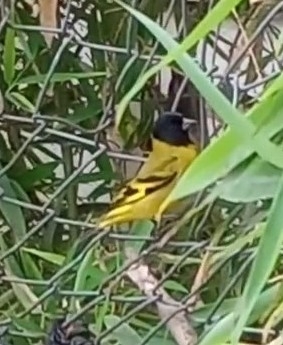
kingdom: Animalia
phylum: Chordata
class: Aves
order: Passeriformes
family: Fringillidae
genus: Spinus
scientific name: Spinus magellanicus
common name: Hooded siskin
